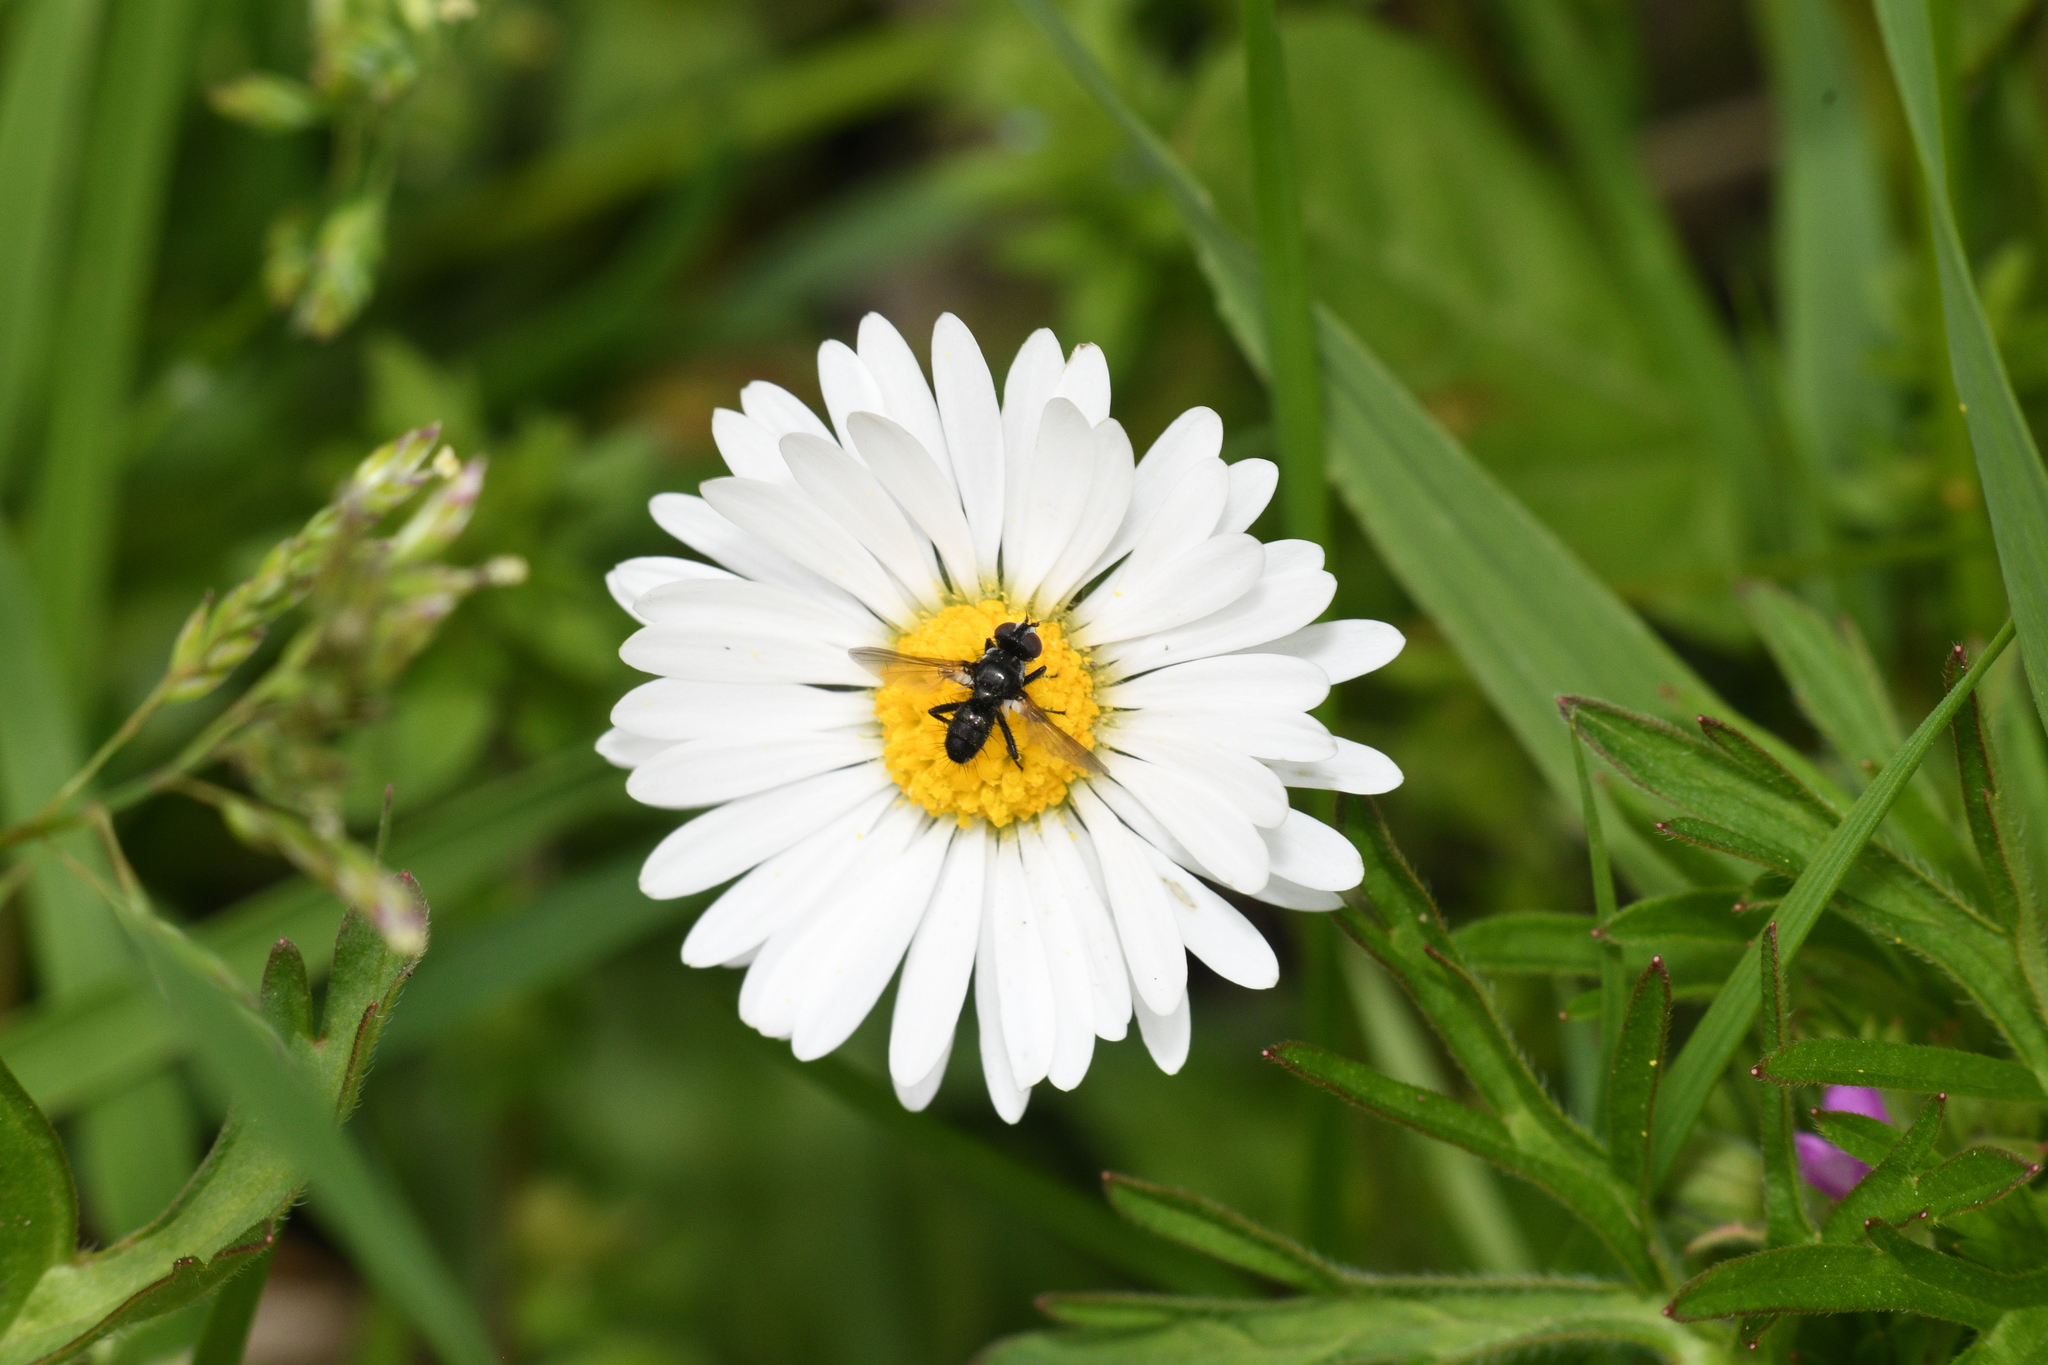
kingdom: Animalia
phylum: Arthropoda
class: Insecta
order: Diptera
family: Tachinidae
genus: Phania
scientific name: Phania funesta
